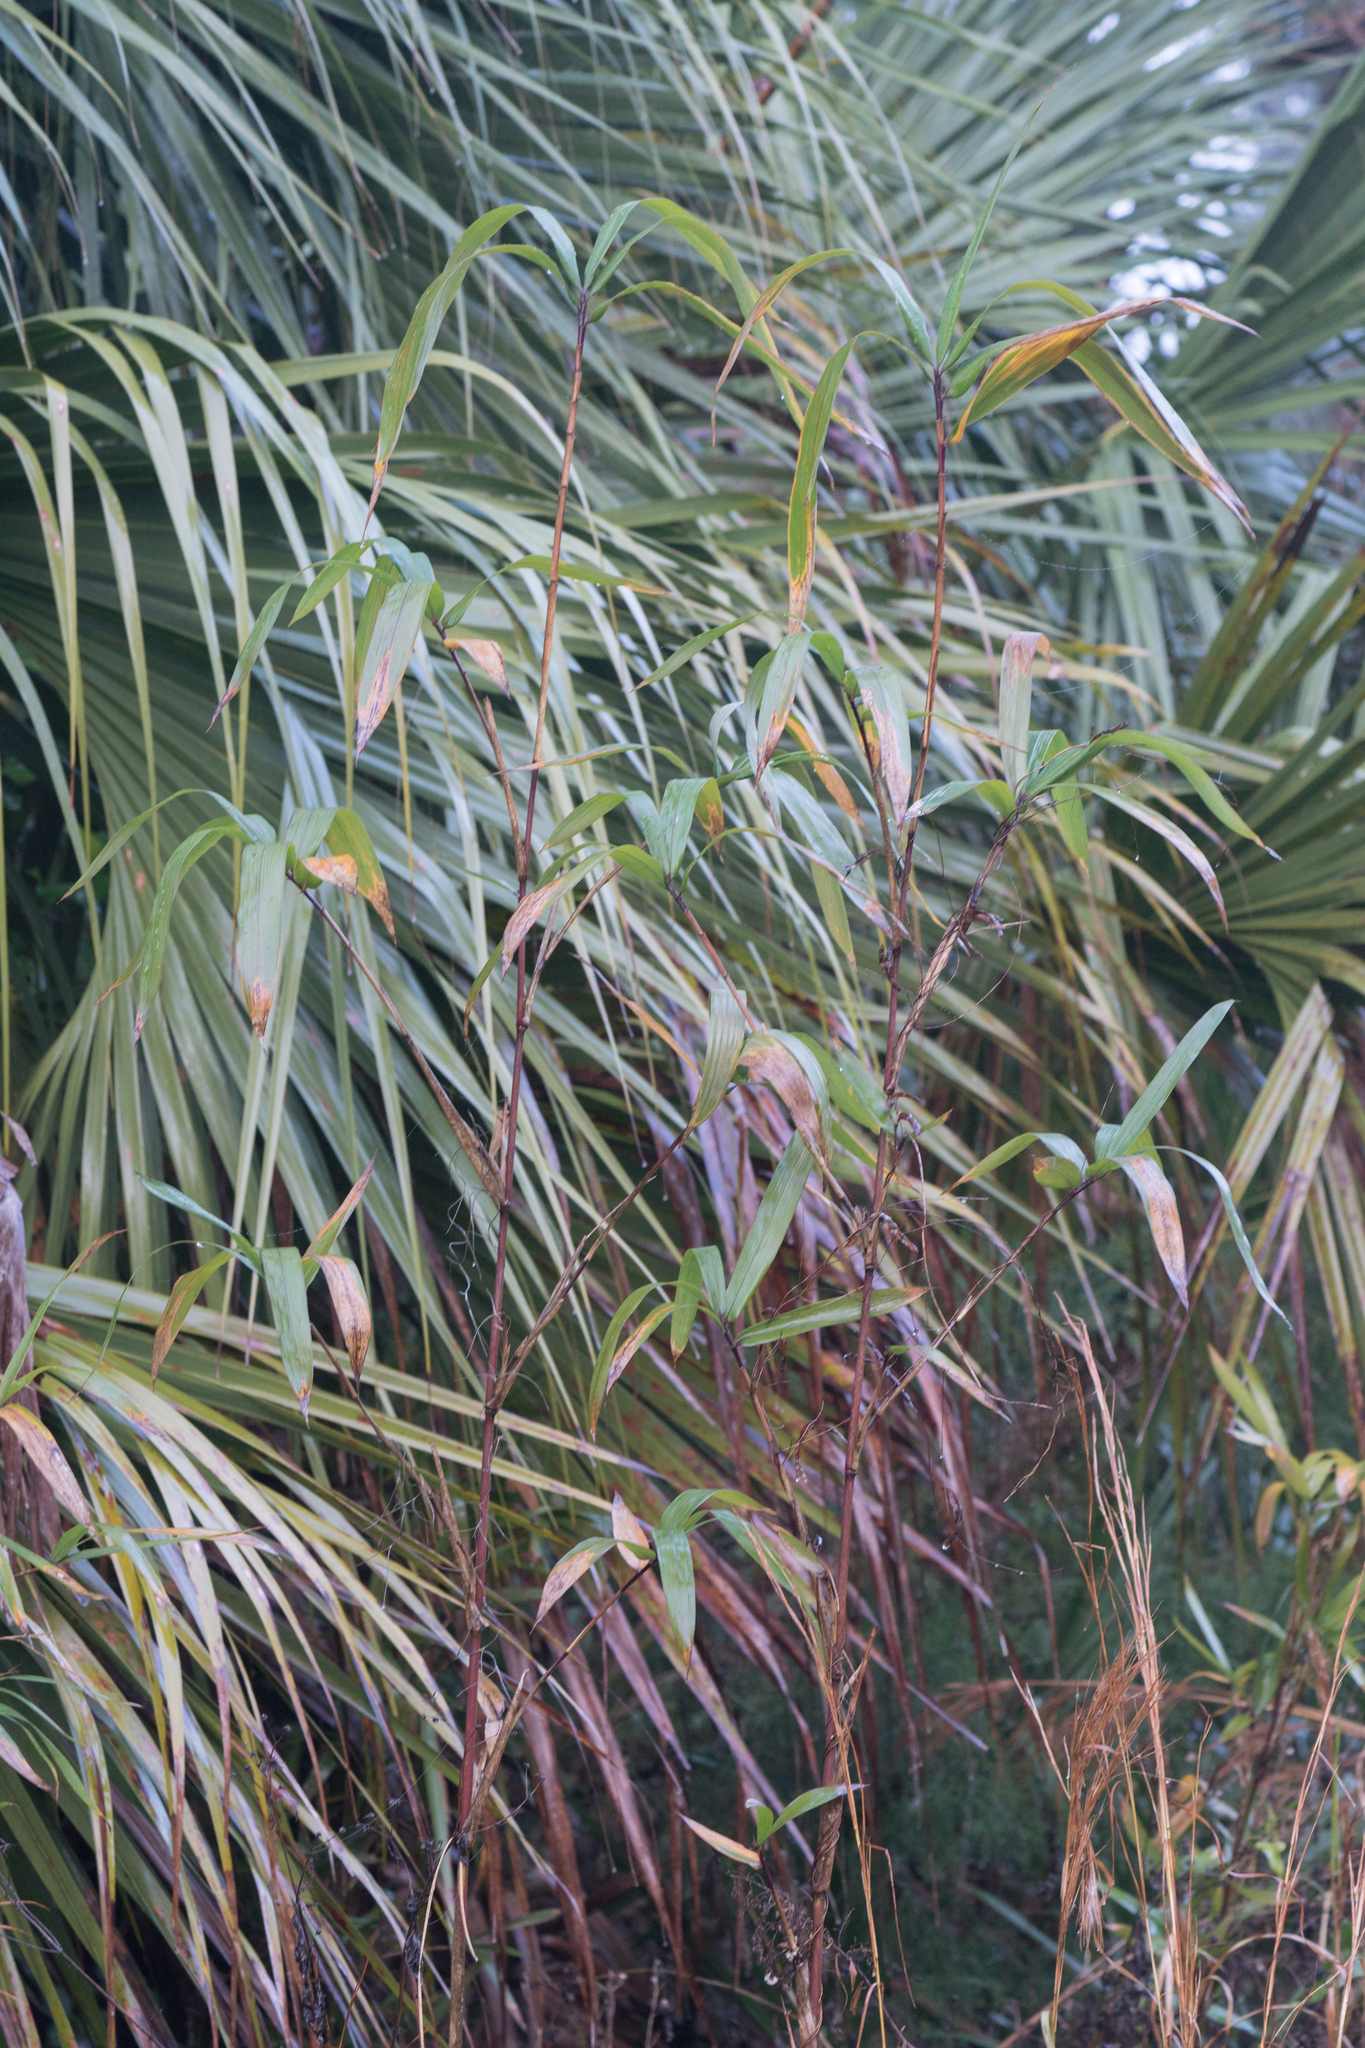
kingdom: Plantae
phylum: Tracheophyta
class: Liliopsida
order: Poales
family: Poaceae
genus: Arundinaria
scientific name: Arundinaria tecta
